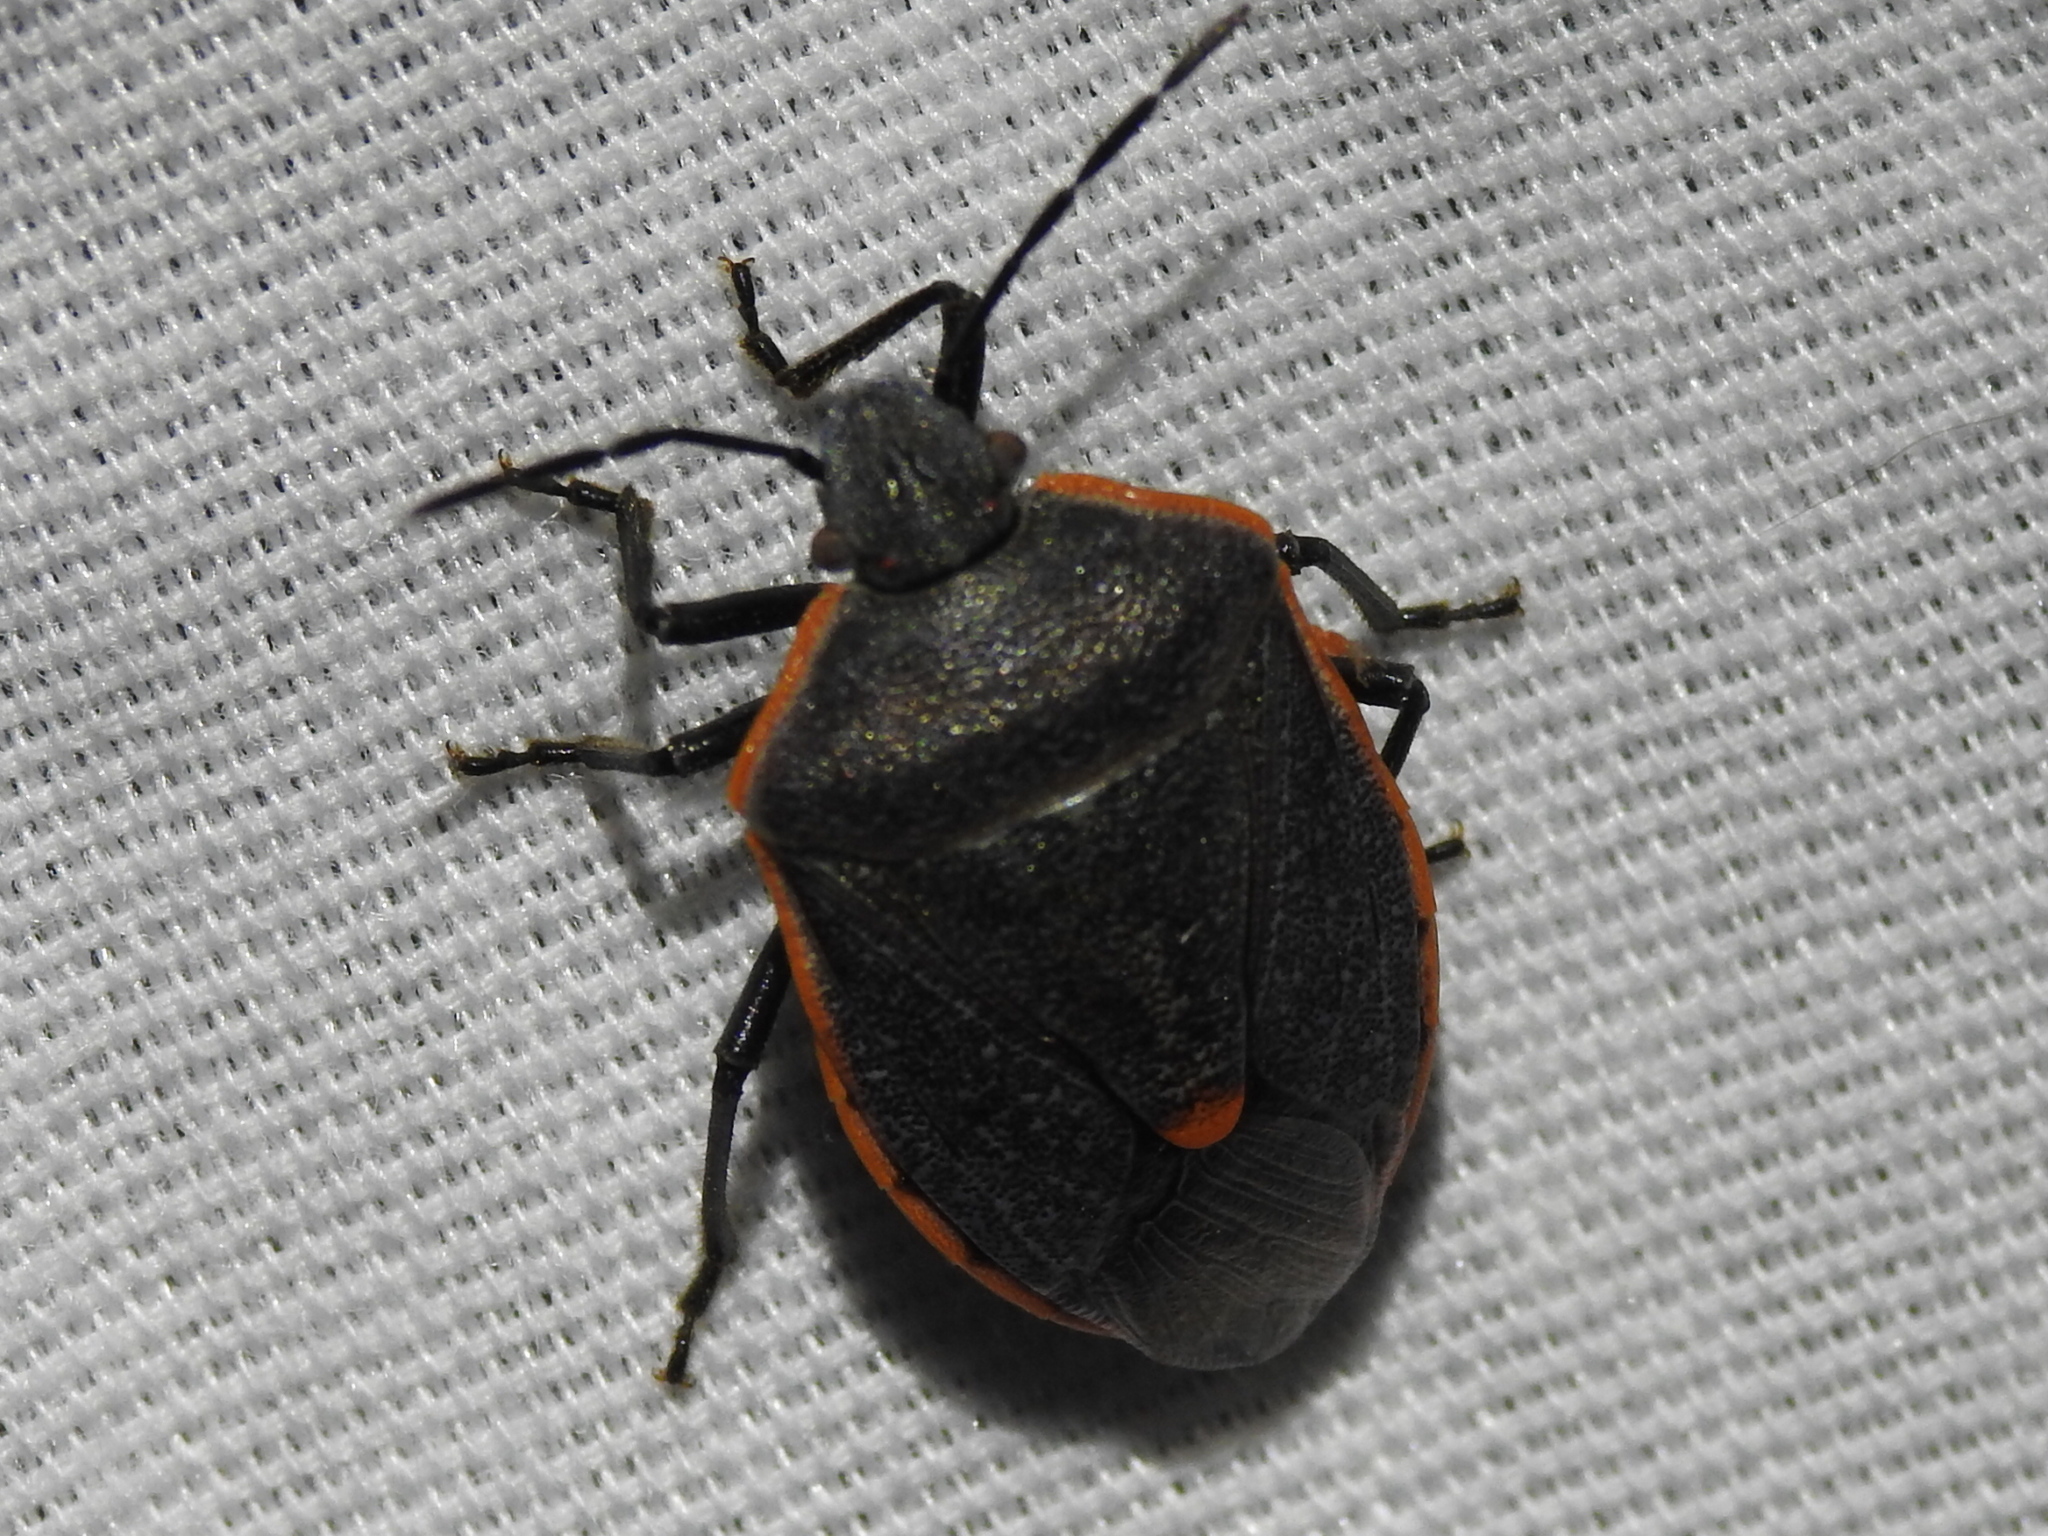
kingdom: Animalia
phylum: Arthropoda
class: Insecta
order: Hemiptera
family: Pentatomidae
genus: Chlorochroa
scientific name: Chlorochroa ligata
